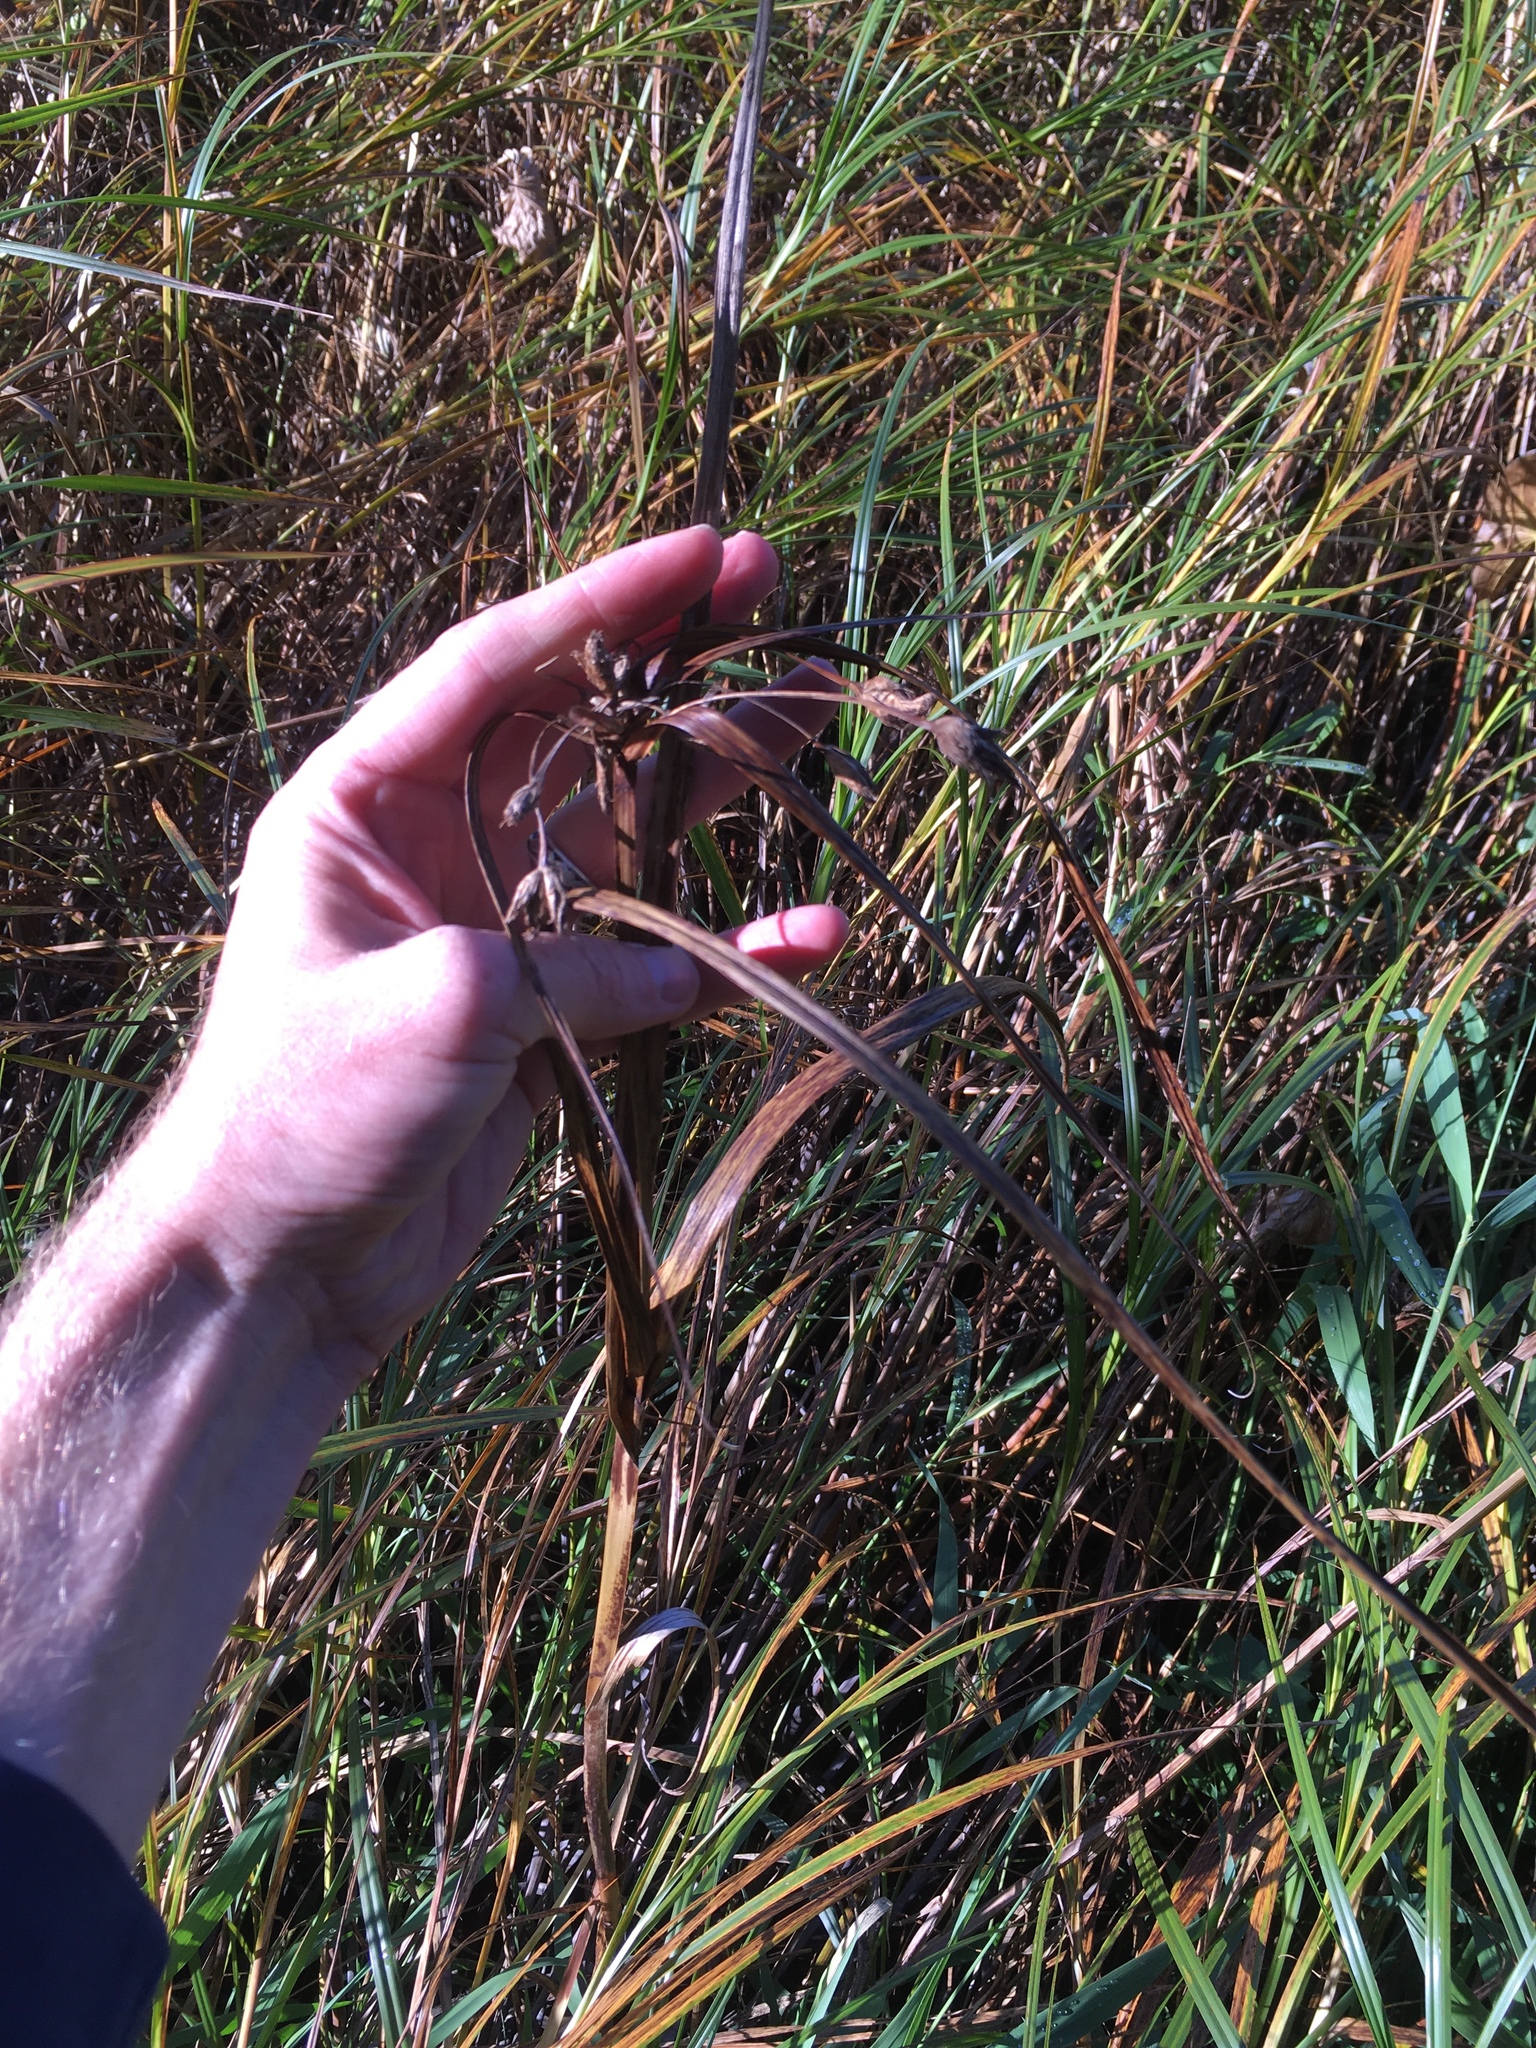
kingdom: Plantae
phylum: Tracheophyta
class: Liliopsida
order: Poales
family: Cyperaceae
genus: Bolboschoenus
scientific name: Bolboschoenus fluviatilis
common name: River bulrush
